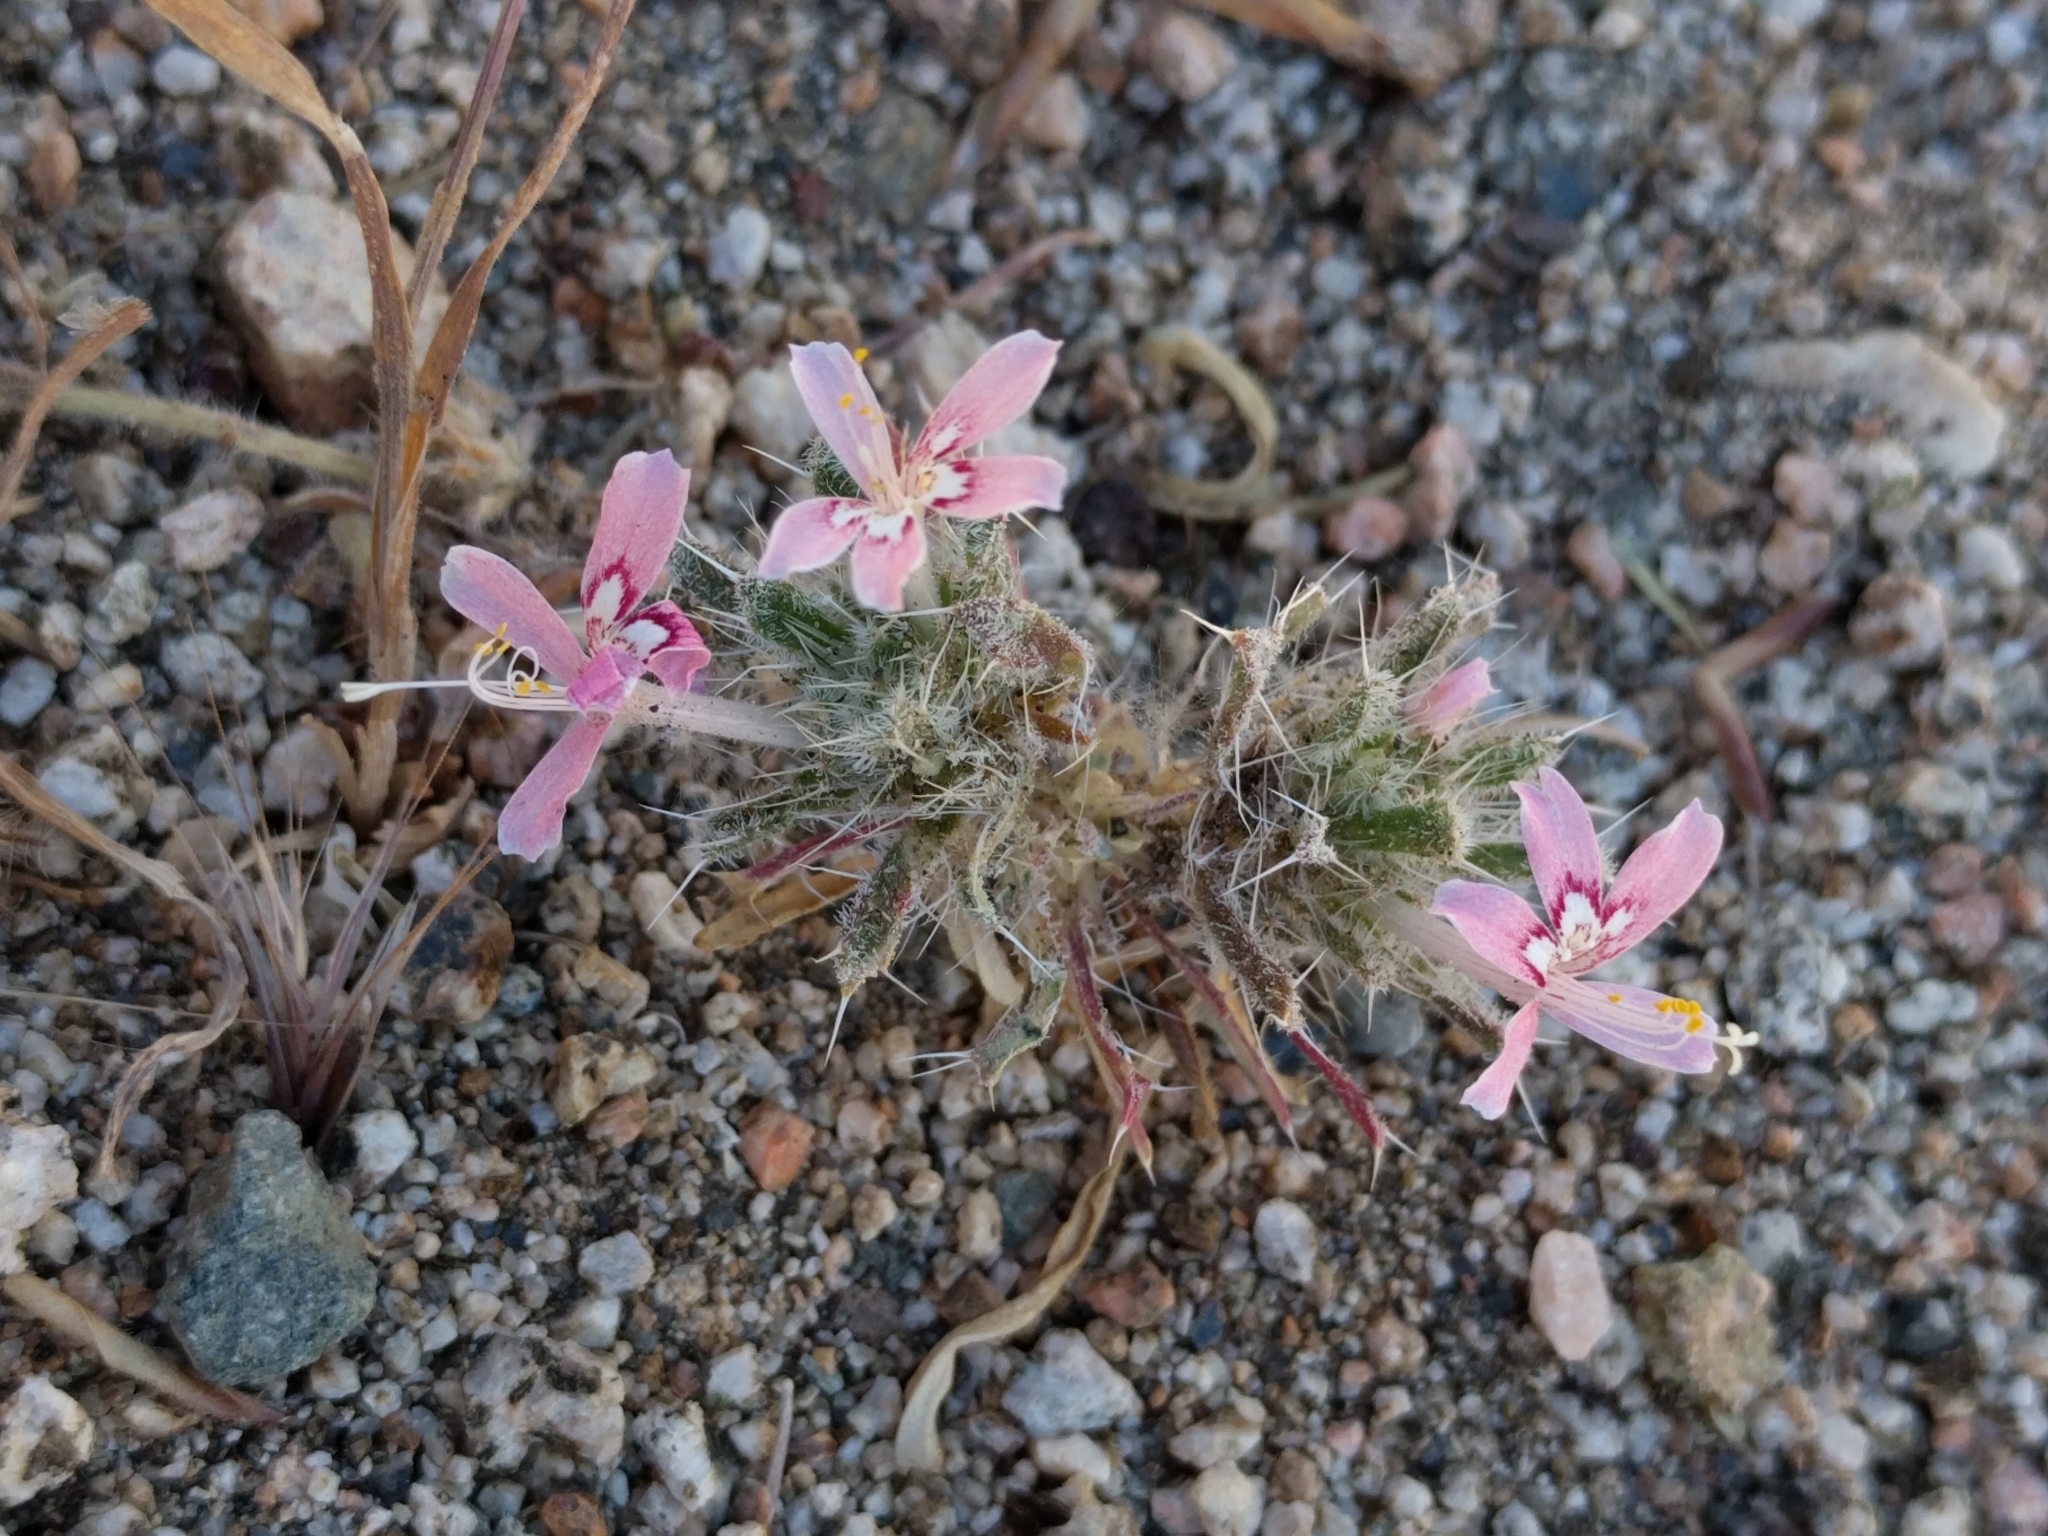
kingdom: Plantae
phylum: Tracheophyta
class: Magnoliopsida
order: Ericales
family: Polemoniaceae
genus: Loeseliastrum
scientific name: Loeseliastrum matthewsii
